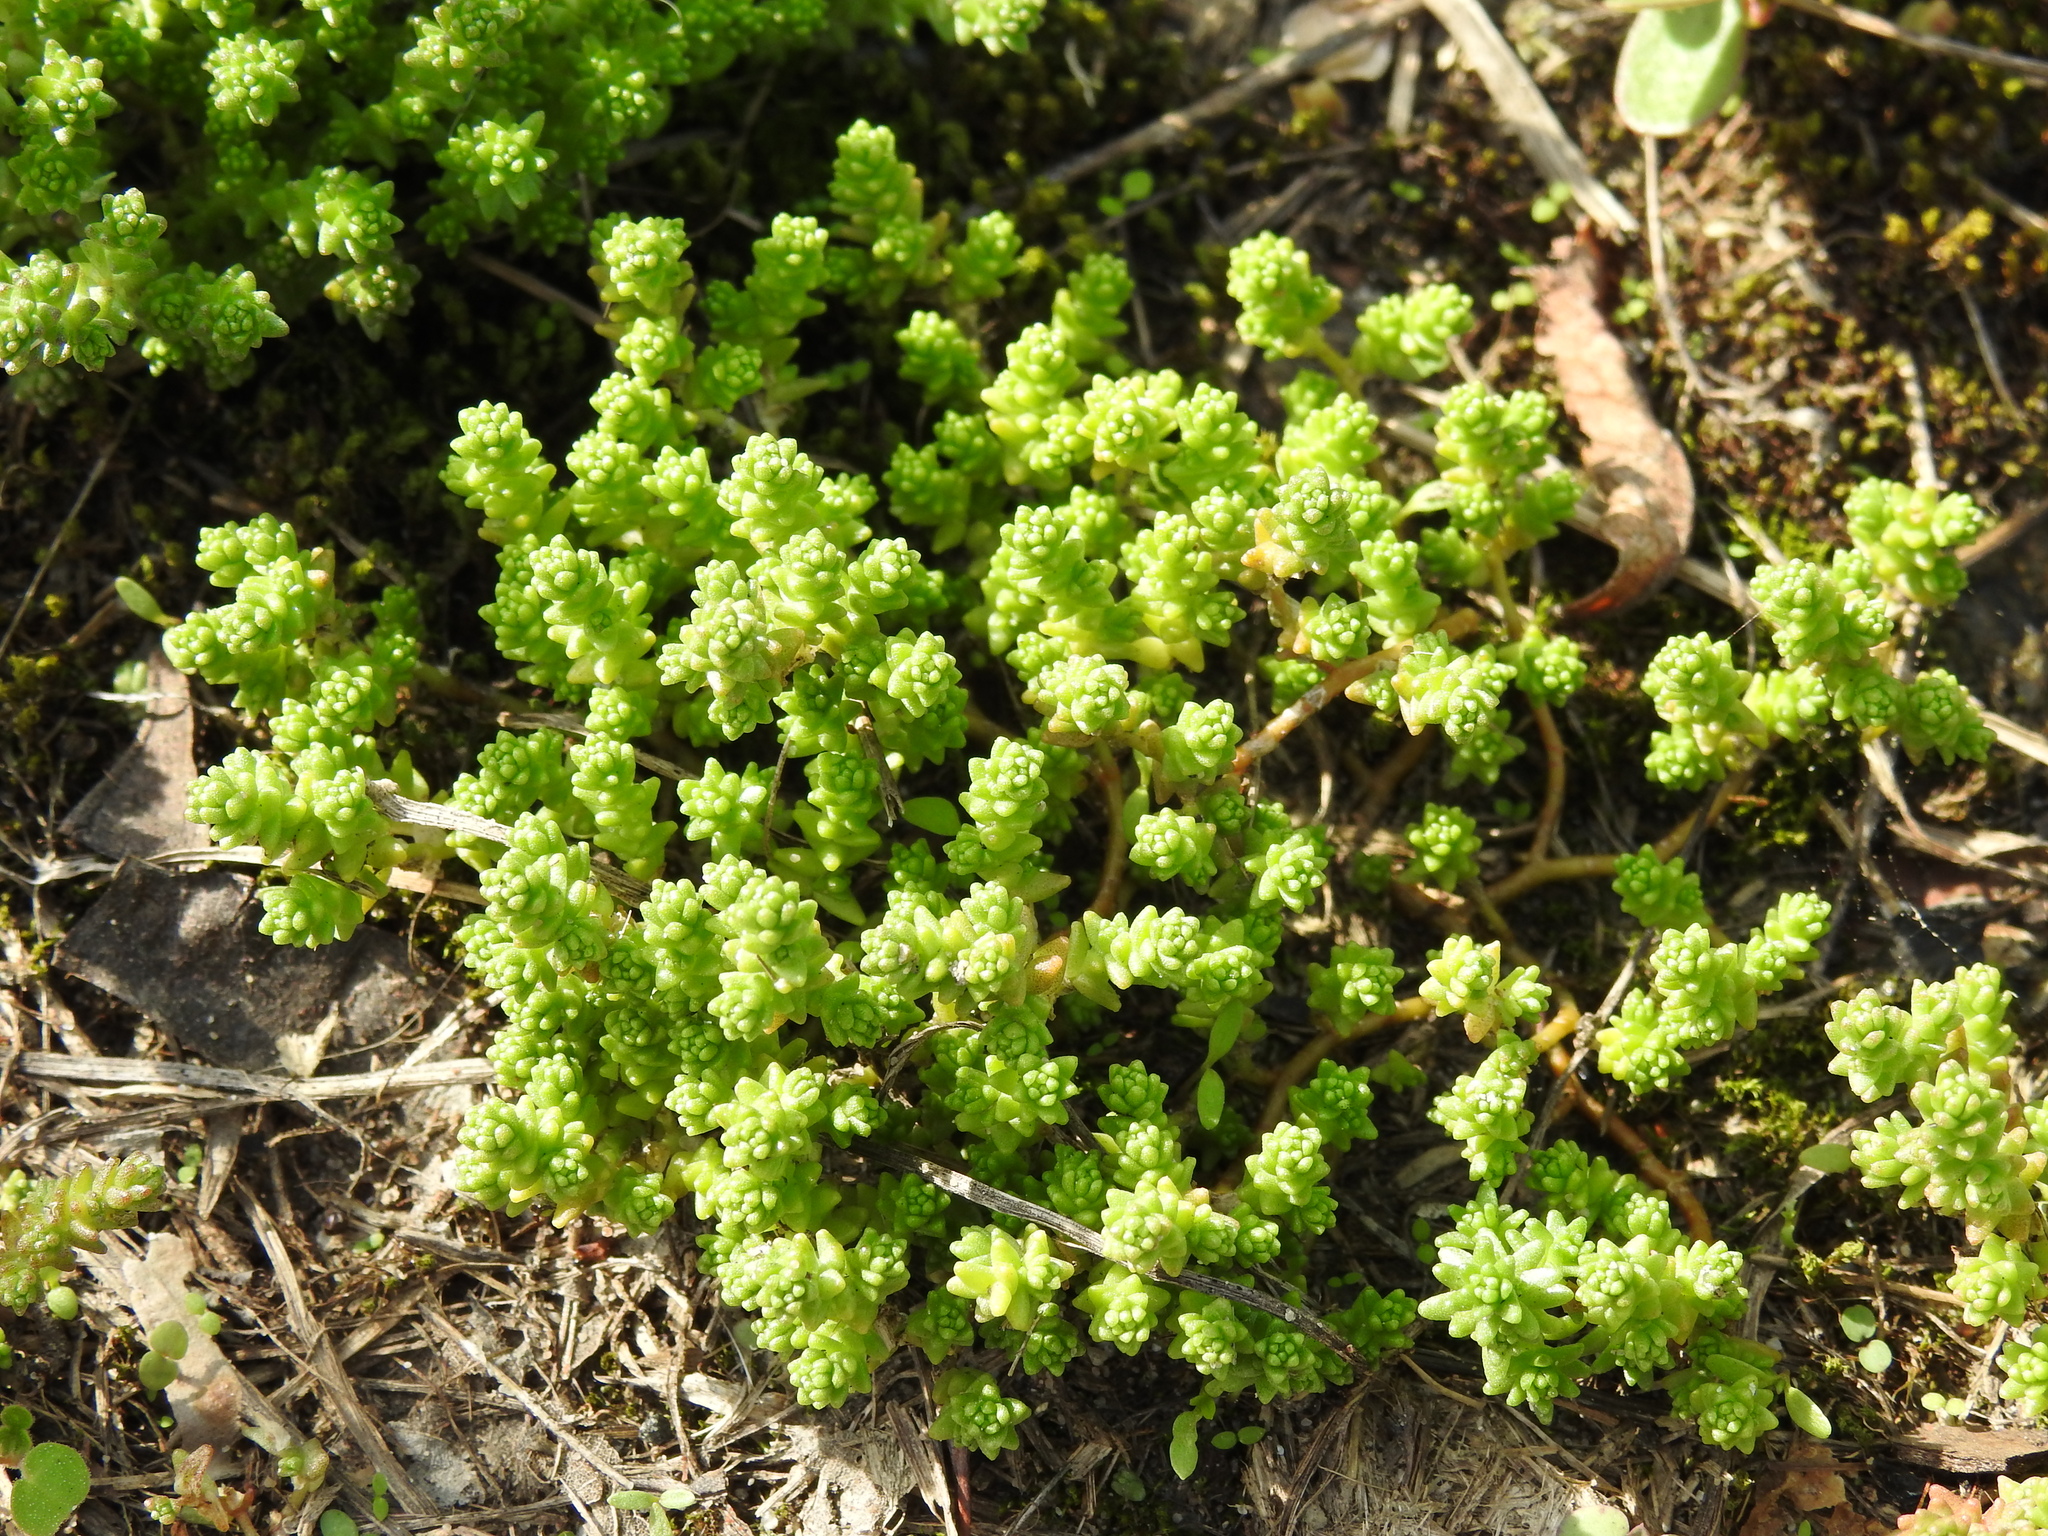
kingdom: Plantae
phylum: Tracheophyta
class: Magnoliopsida
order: Saxifragales
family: Crassulaceae
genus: Sedum
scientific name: Sedum acre
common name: Biting stonecrop
